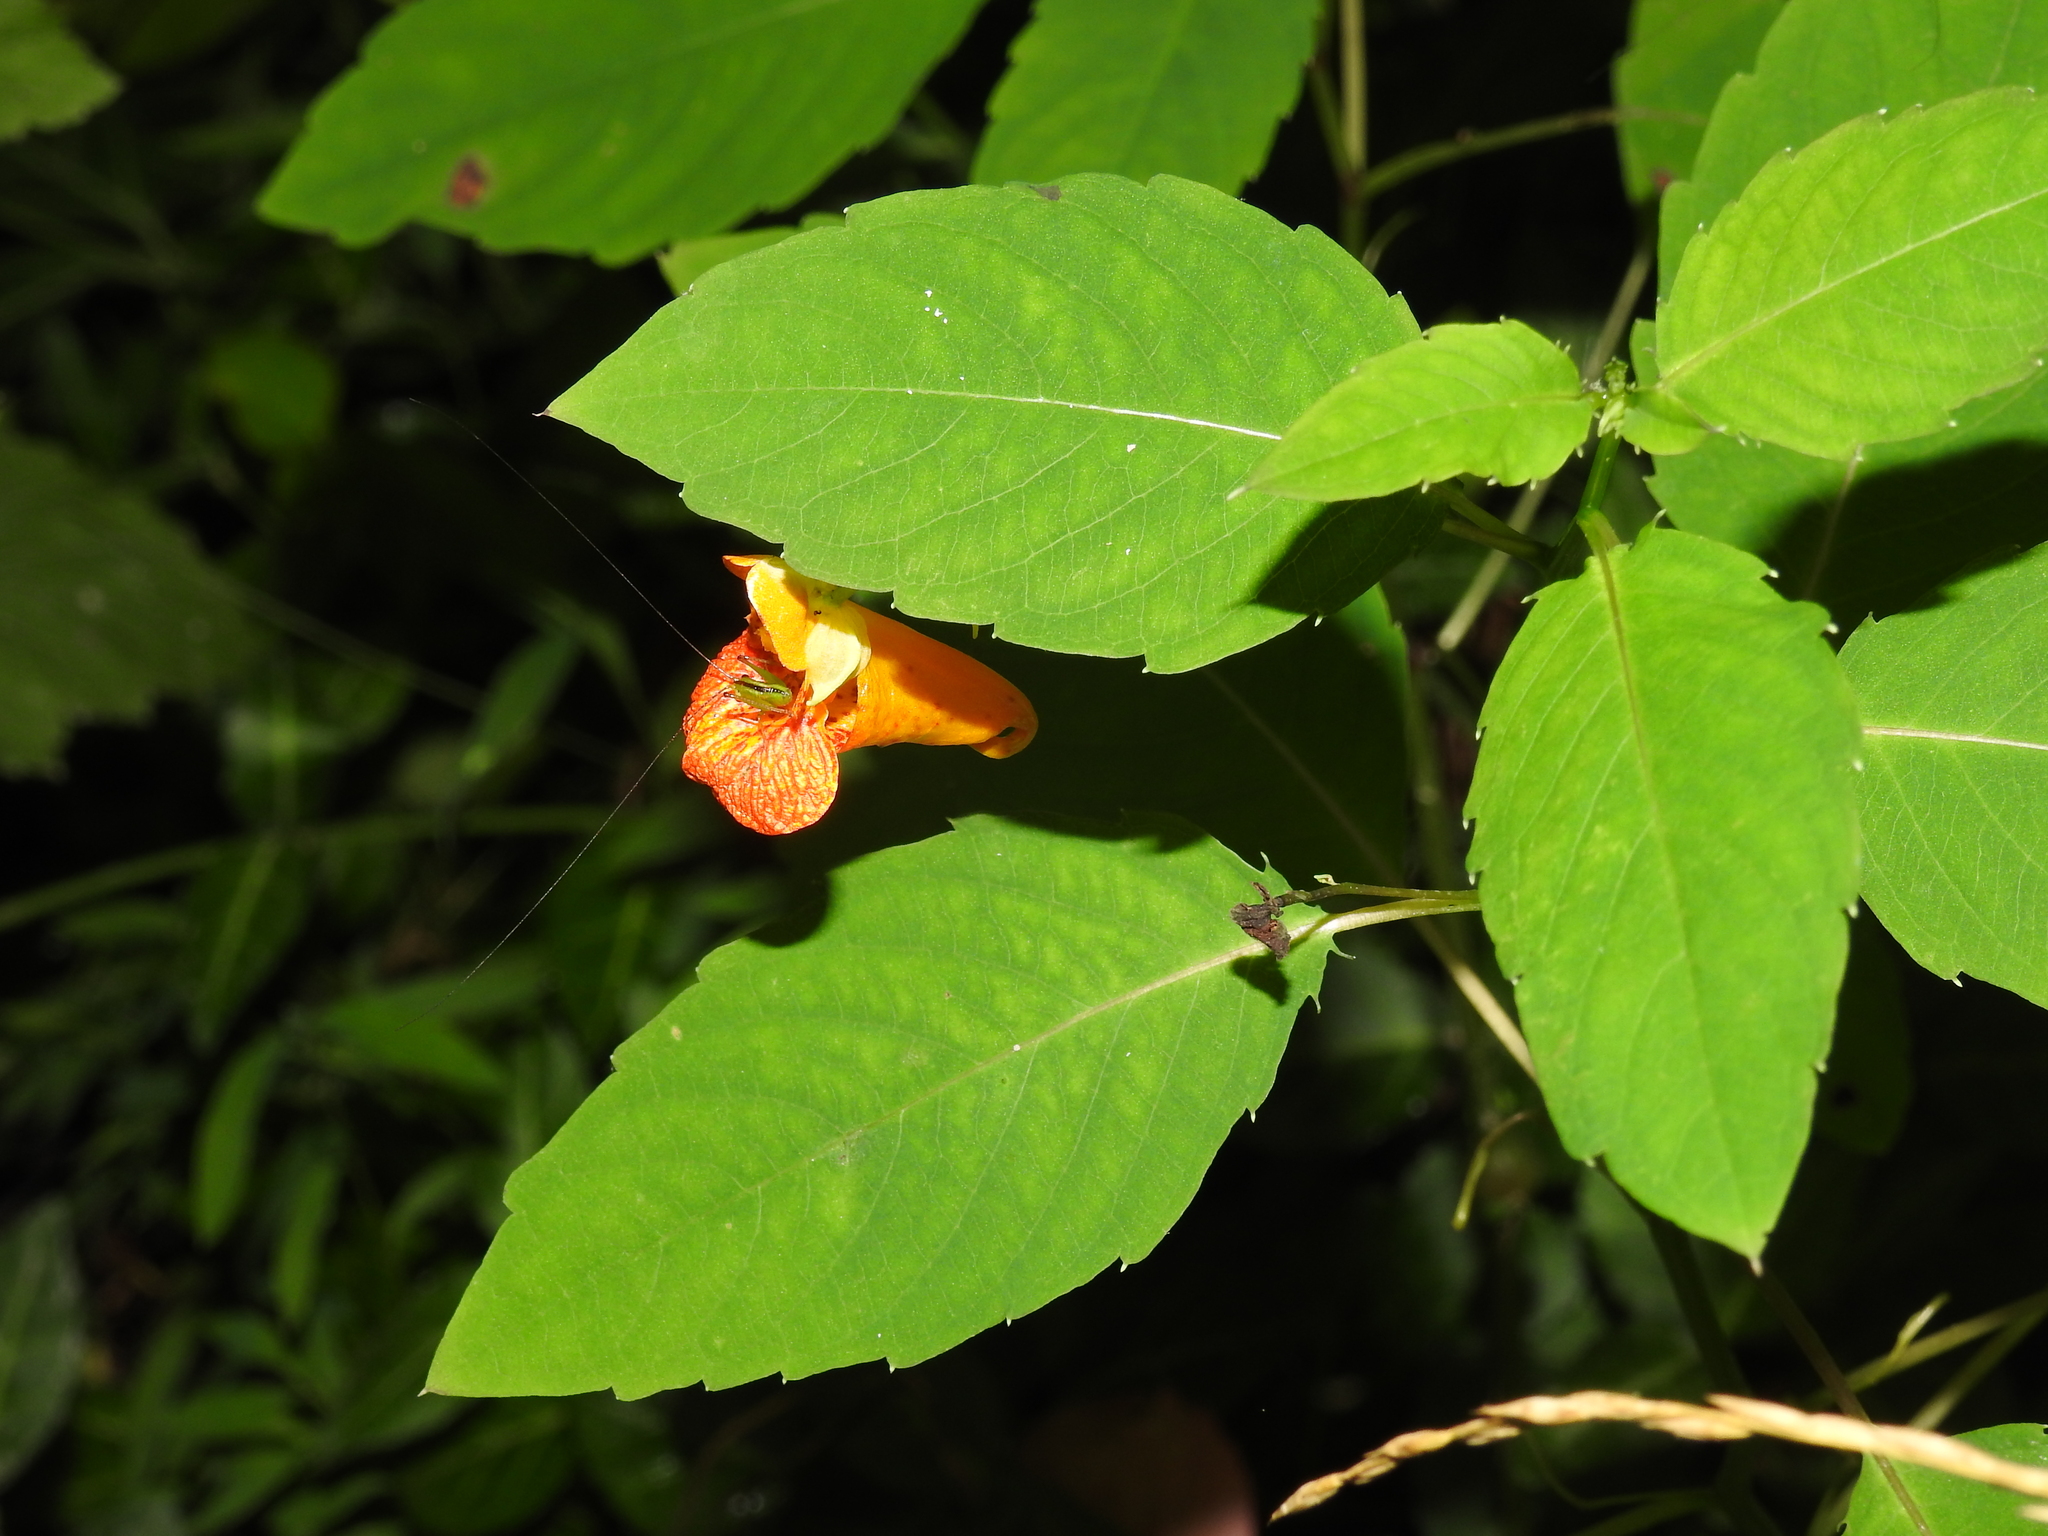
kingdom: Plantae
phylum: Tracheophyta
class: Magnoliopsida
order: Ericales
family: Balsaminaceae
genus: Impatiens
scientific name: Impatiens capensis
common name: Orange balsam
